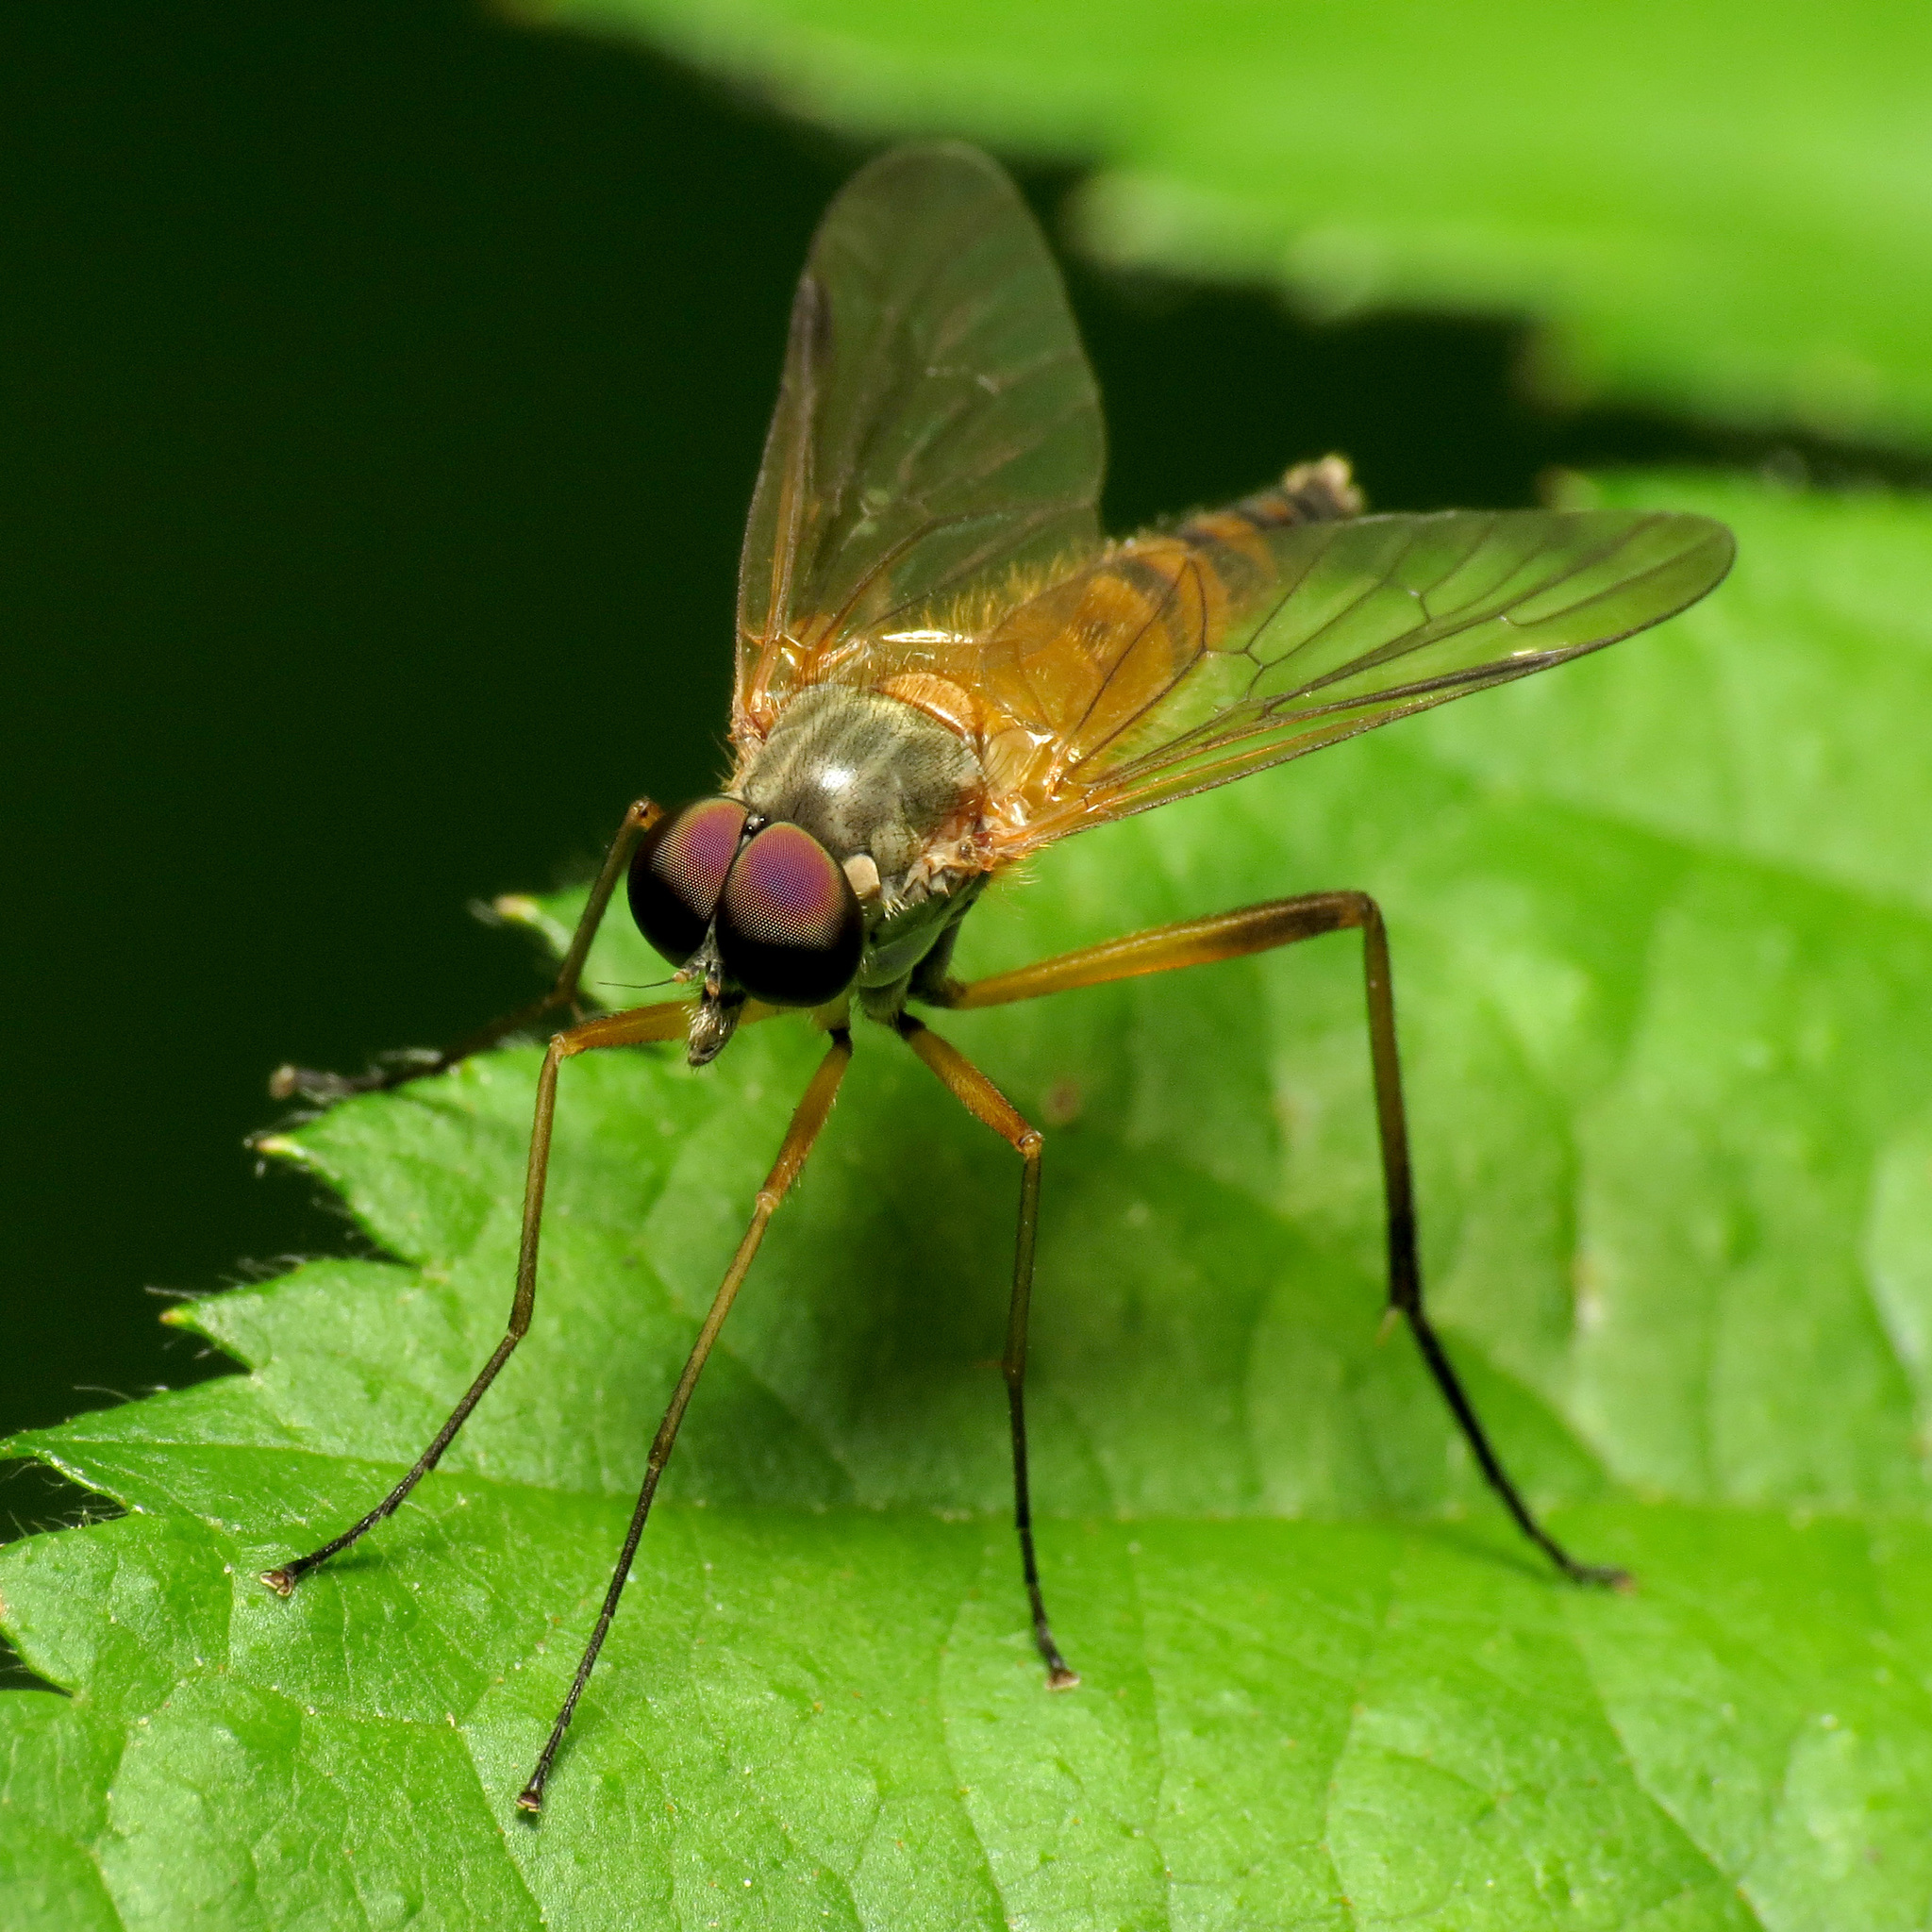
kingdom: Animalia
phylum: Arthropoda
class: Insecta
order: Diptera
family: Rhagionidae
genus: Rhagio
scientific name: Rhagio hirta
